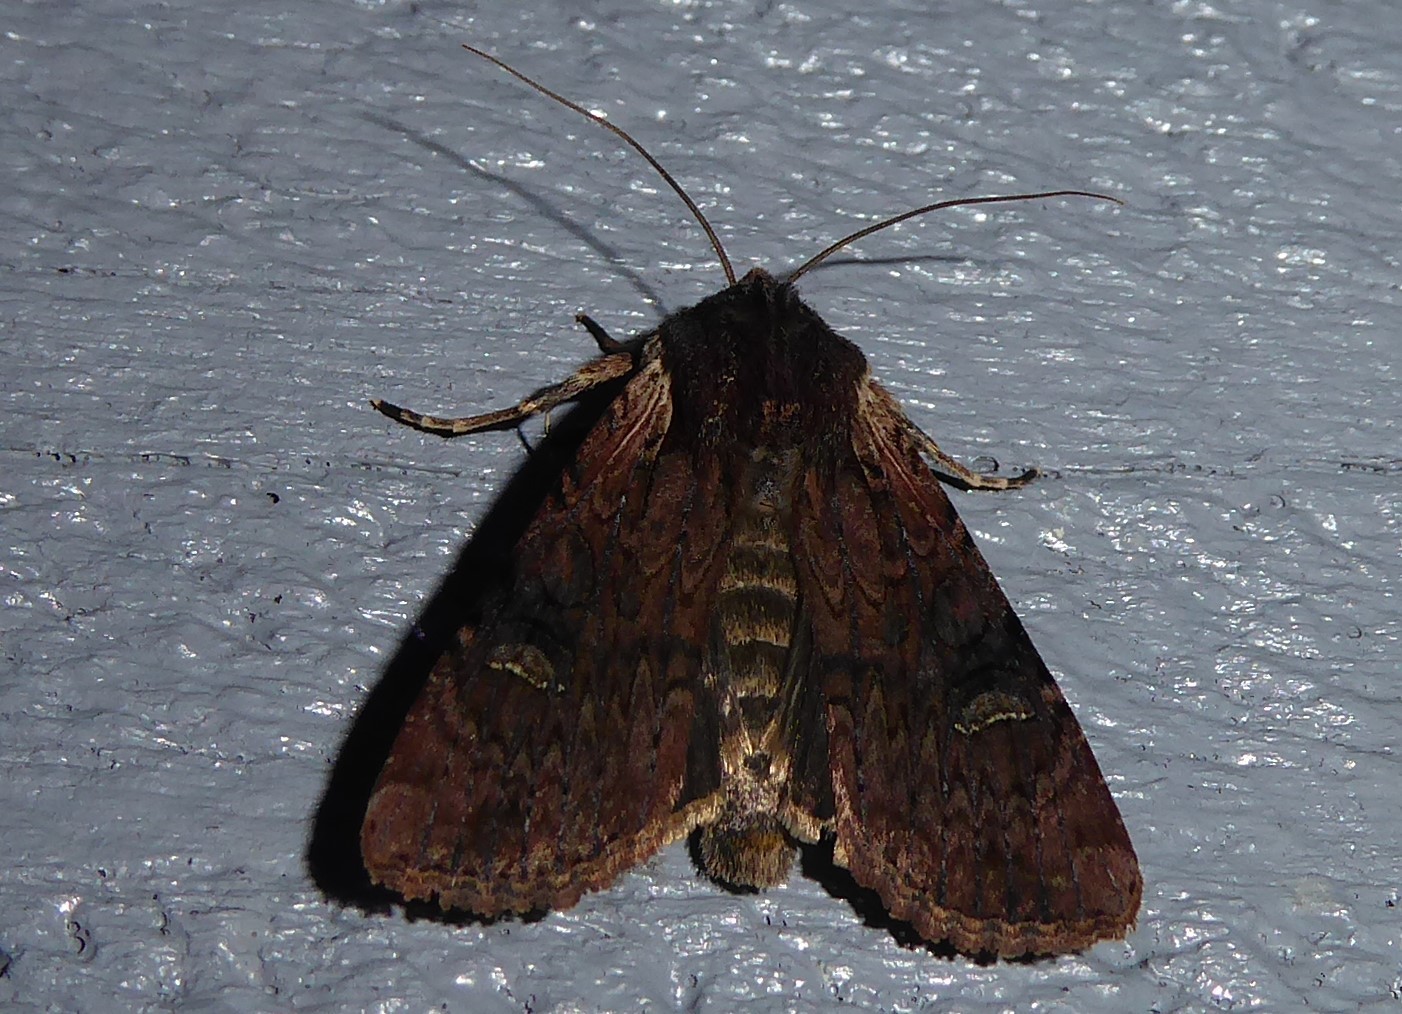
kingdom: Animalia
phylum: Arthropoda
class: Insecta
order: Lepidoptera
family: Noctuidae
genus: Ichneutica
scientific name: Ichneutica omoplaca
